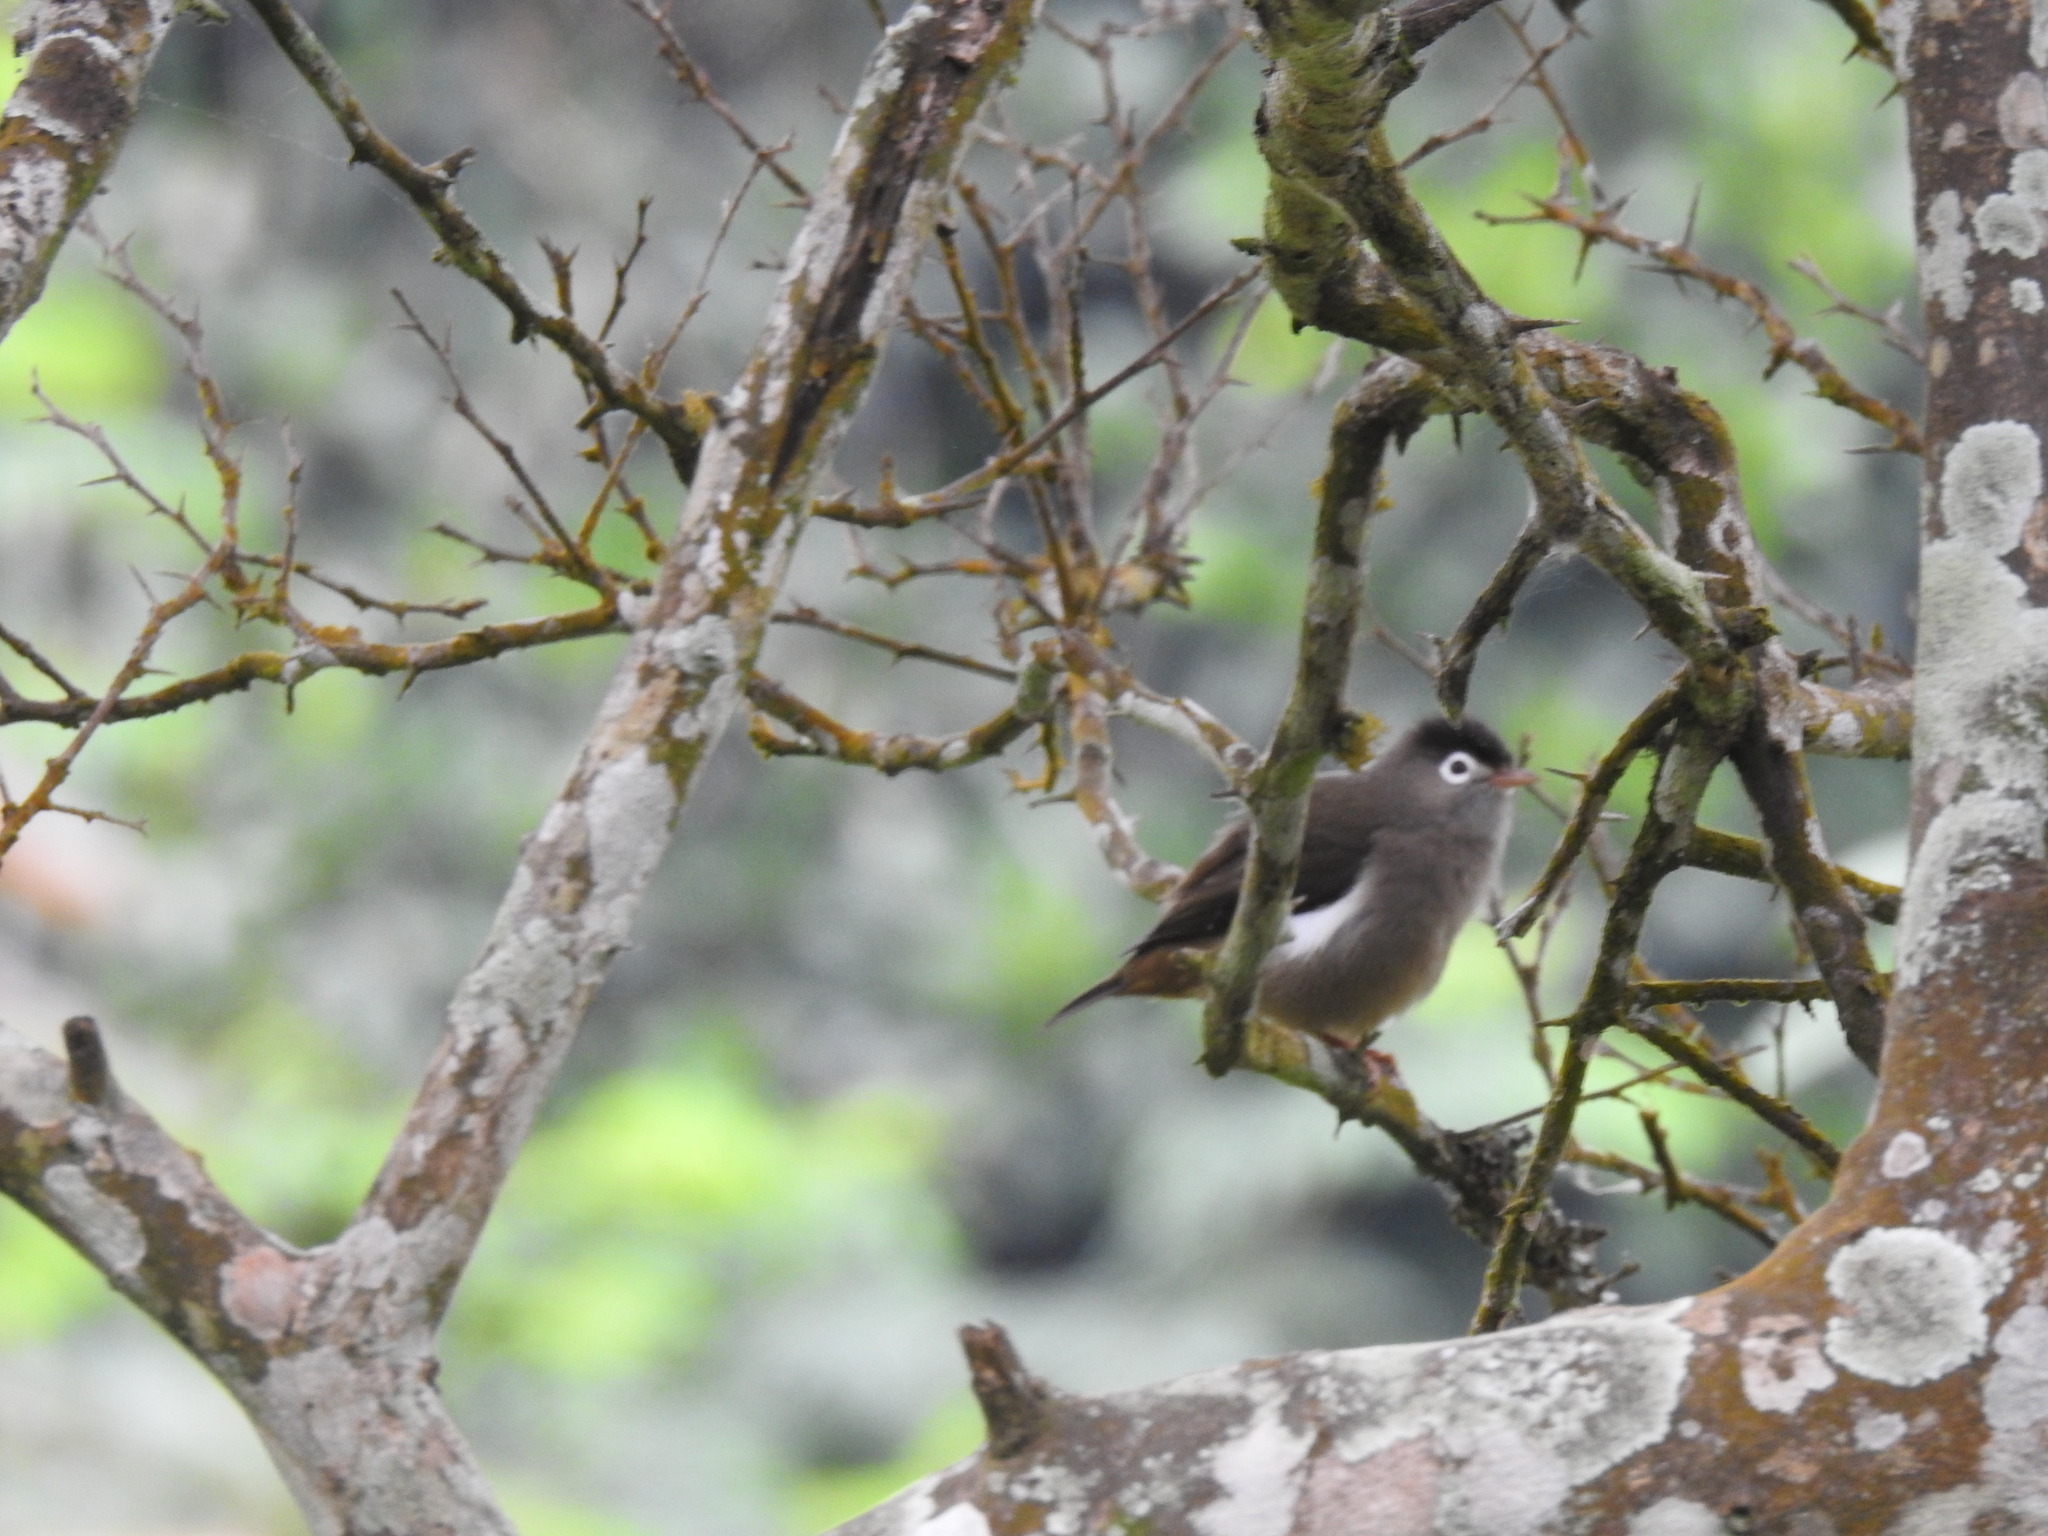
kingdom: Animalia
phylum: Chordata
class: Aves
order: Passeriformes
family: Zosteropidae
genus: Zosterops
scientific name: Zosterops lugubris
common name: Black-capped speirops
